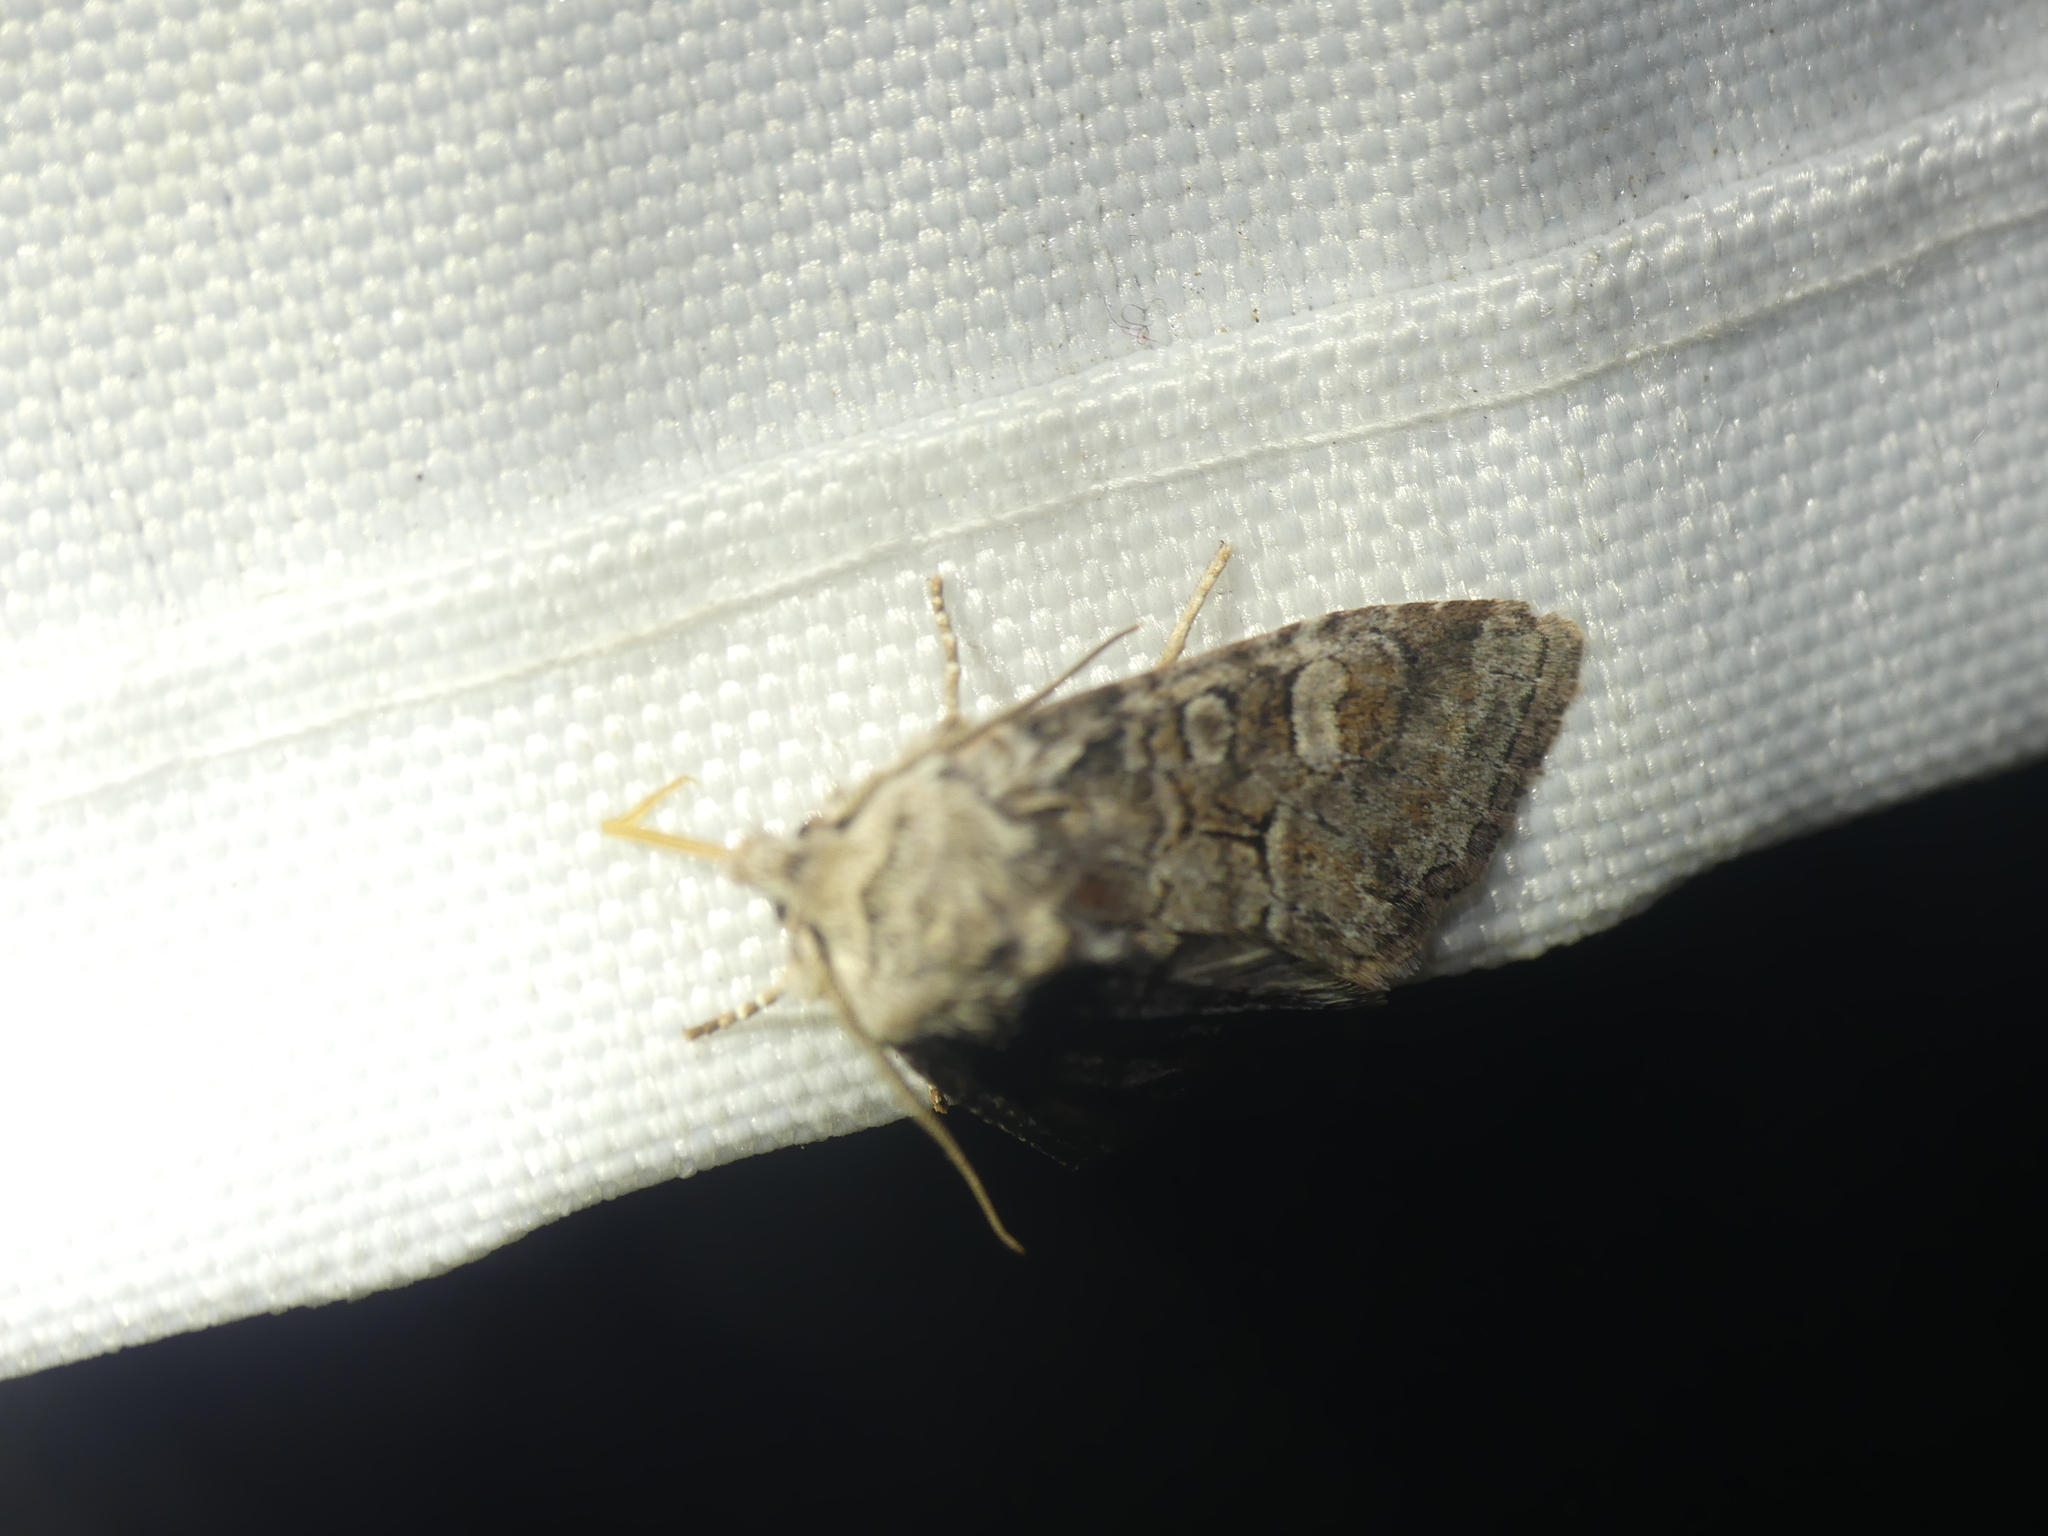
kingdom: Animalia
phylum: Arthropoda
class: Insecta
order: Lepidoptera
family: Noctuidae
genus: Brachylomia
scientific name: Brachylomia viminalis
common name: Minor shoulder-knot
